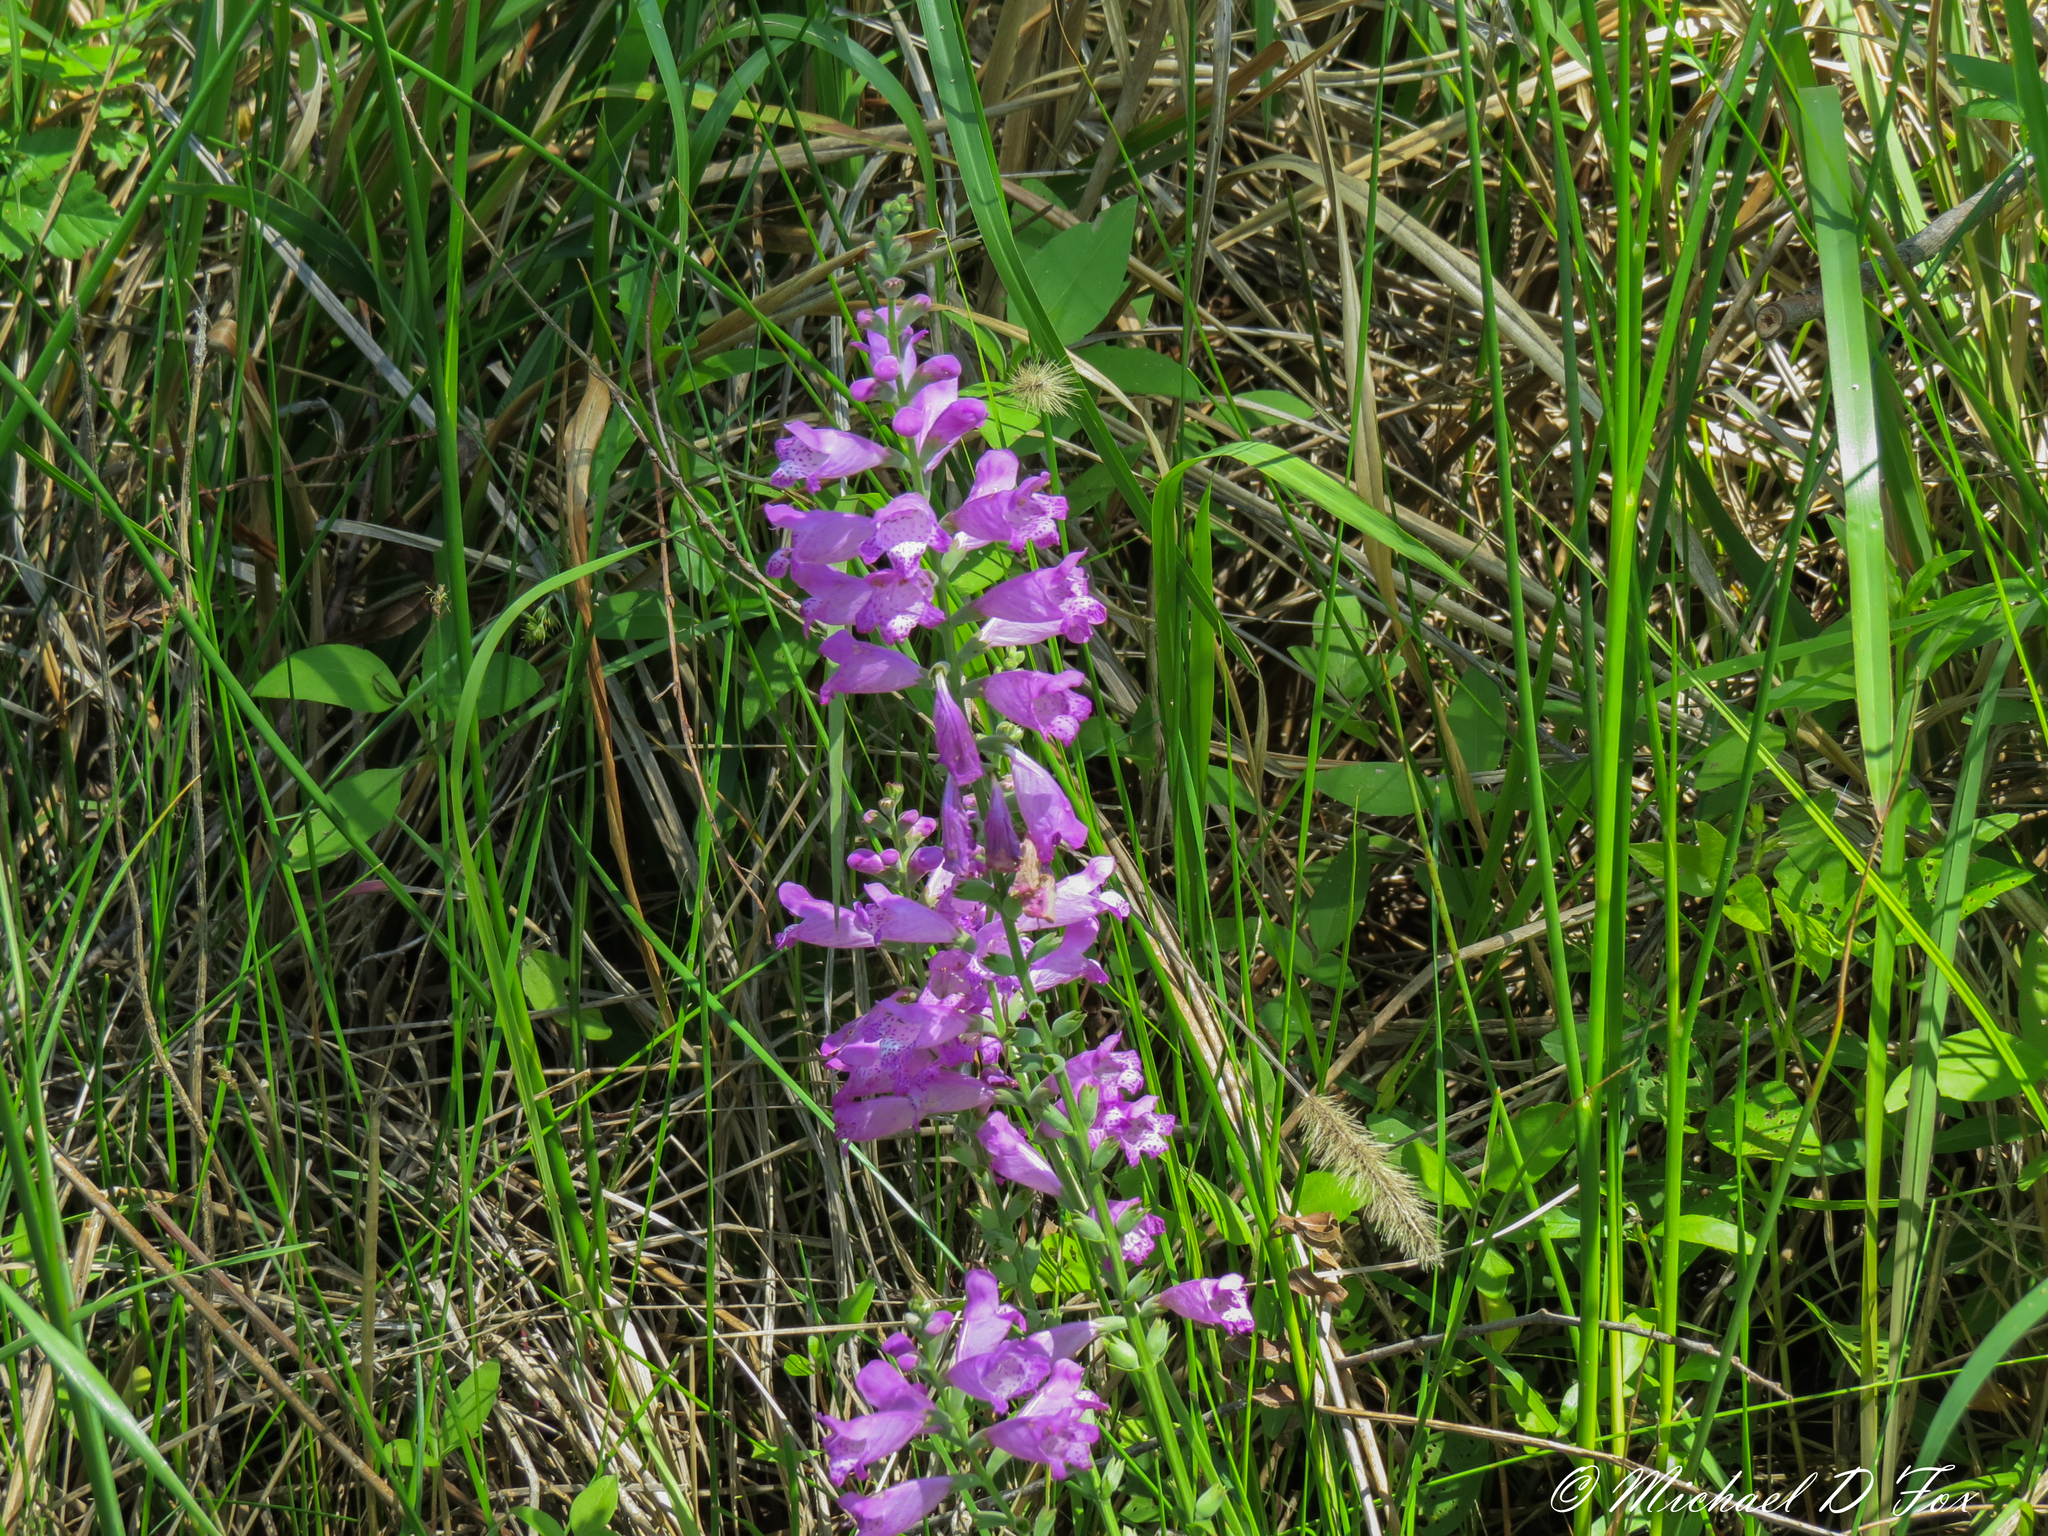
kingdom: Plantae
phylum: Tracheophyta
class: Magnoliopsida
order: Lamiales
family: Lamiaceae
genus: Physostegia
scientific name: Physostegia virginiana
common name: Obedient-plant
